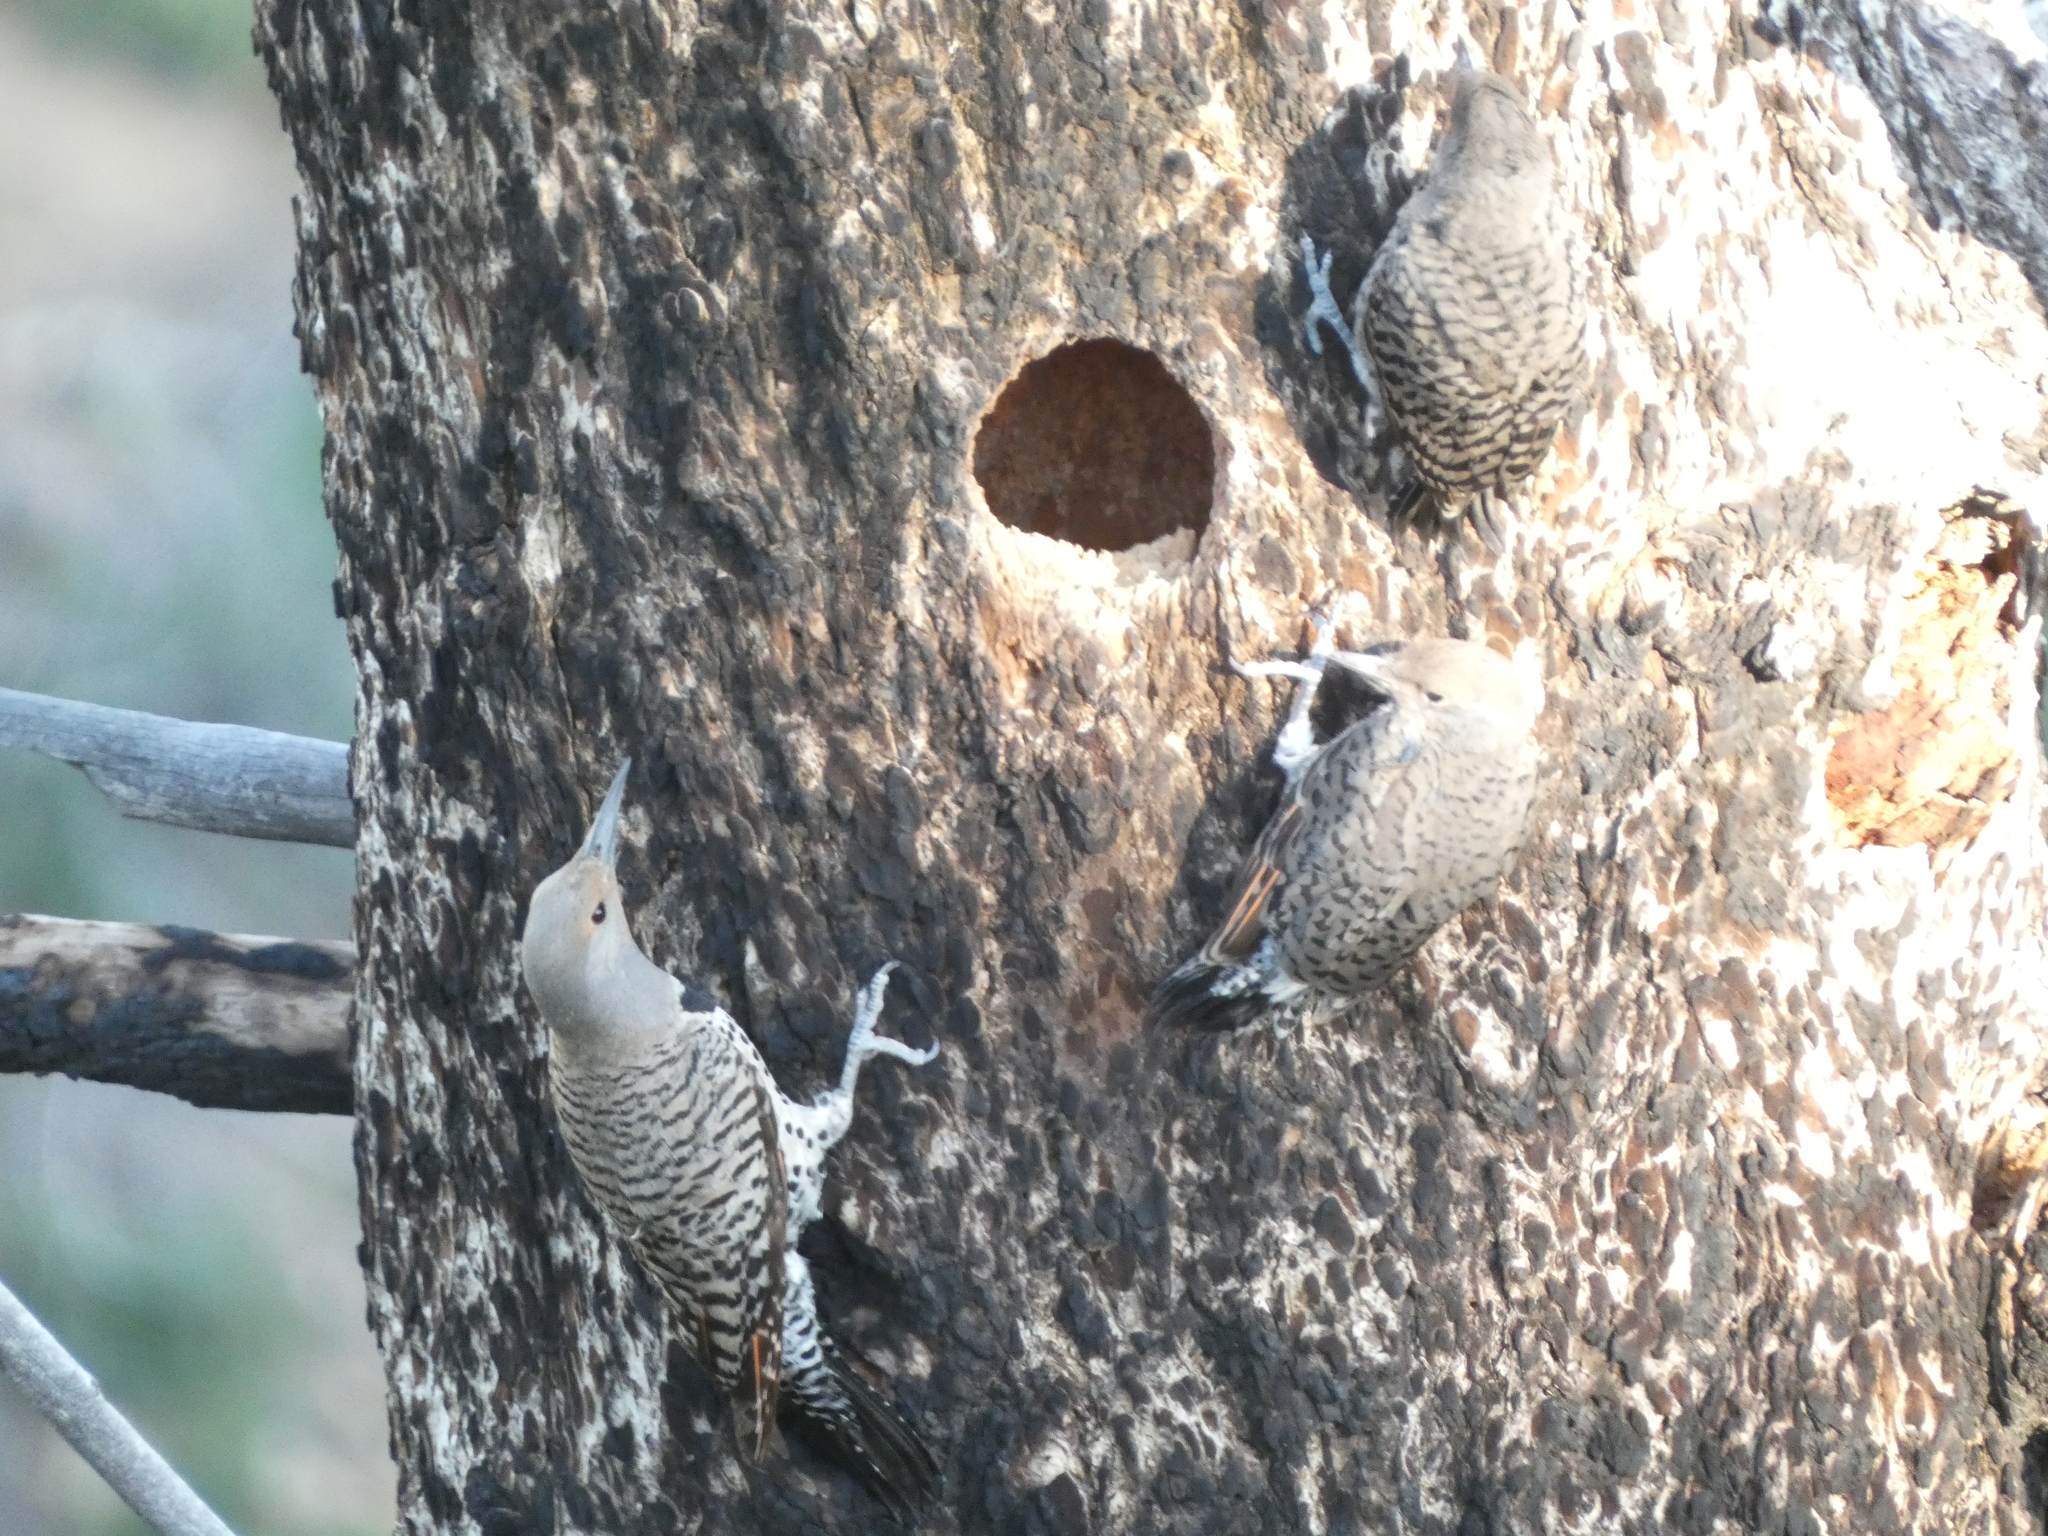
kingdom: Animalia
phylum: Chordata
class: Aves
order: Piciformes
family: Picidae
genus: Colaptes
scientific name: Colaptes auratus
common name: Northern flicker
